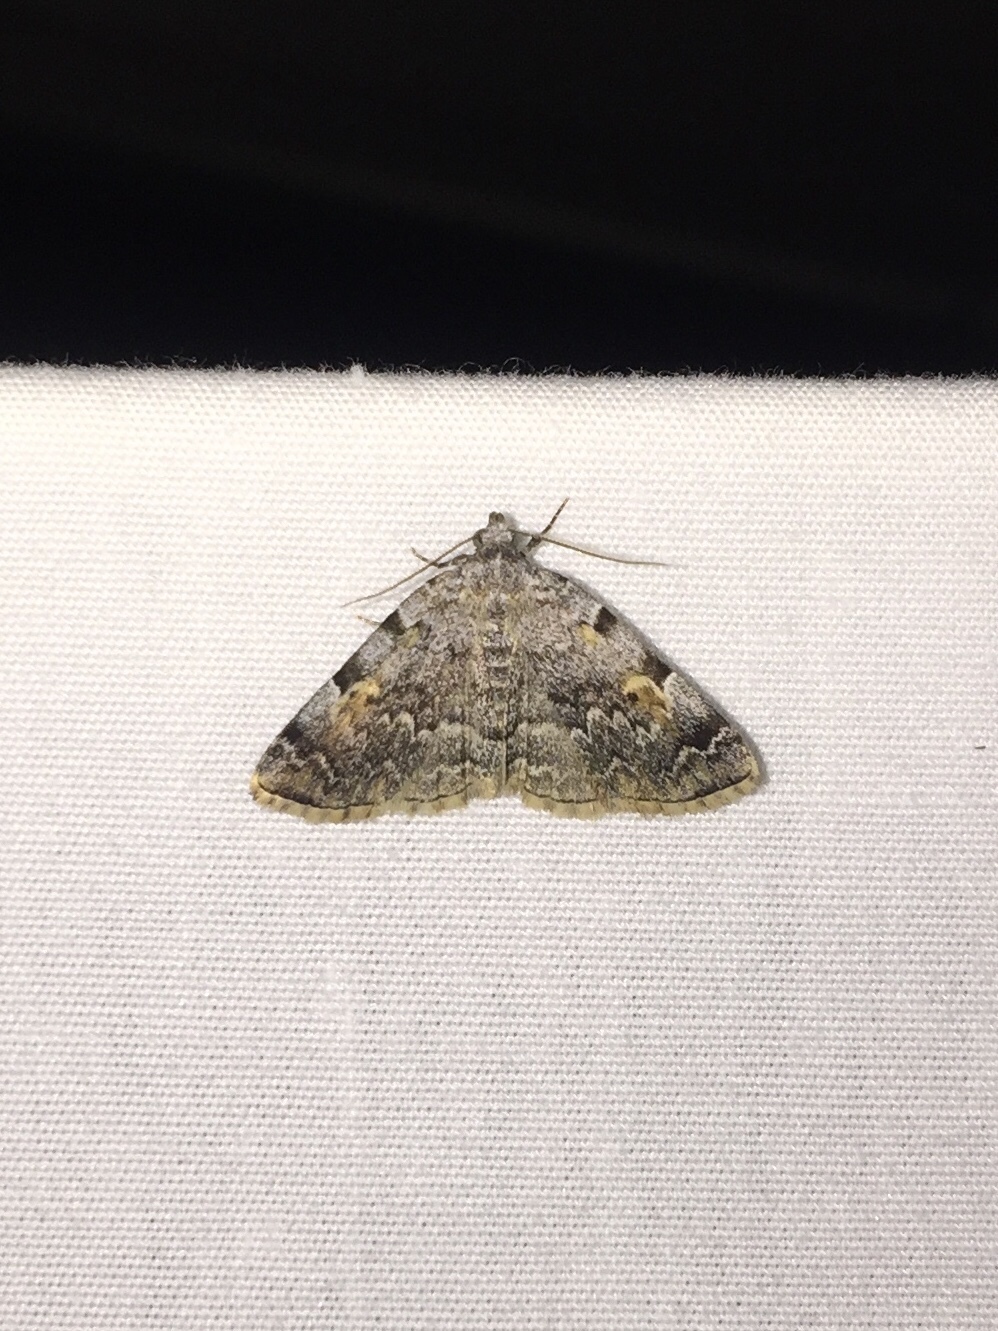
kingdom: Animalia
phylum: Arthropoda
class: Insecta
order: Lepidoptera
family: Erebidae
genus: Idia
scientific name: Idia americalis
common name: American idia moth
